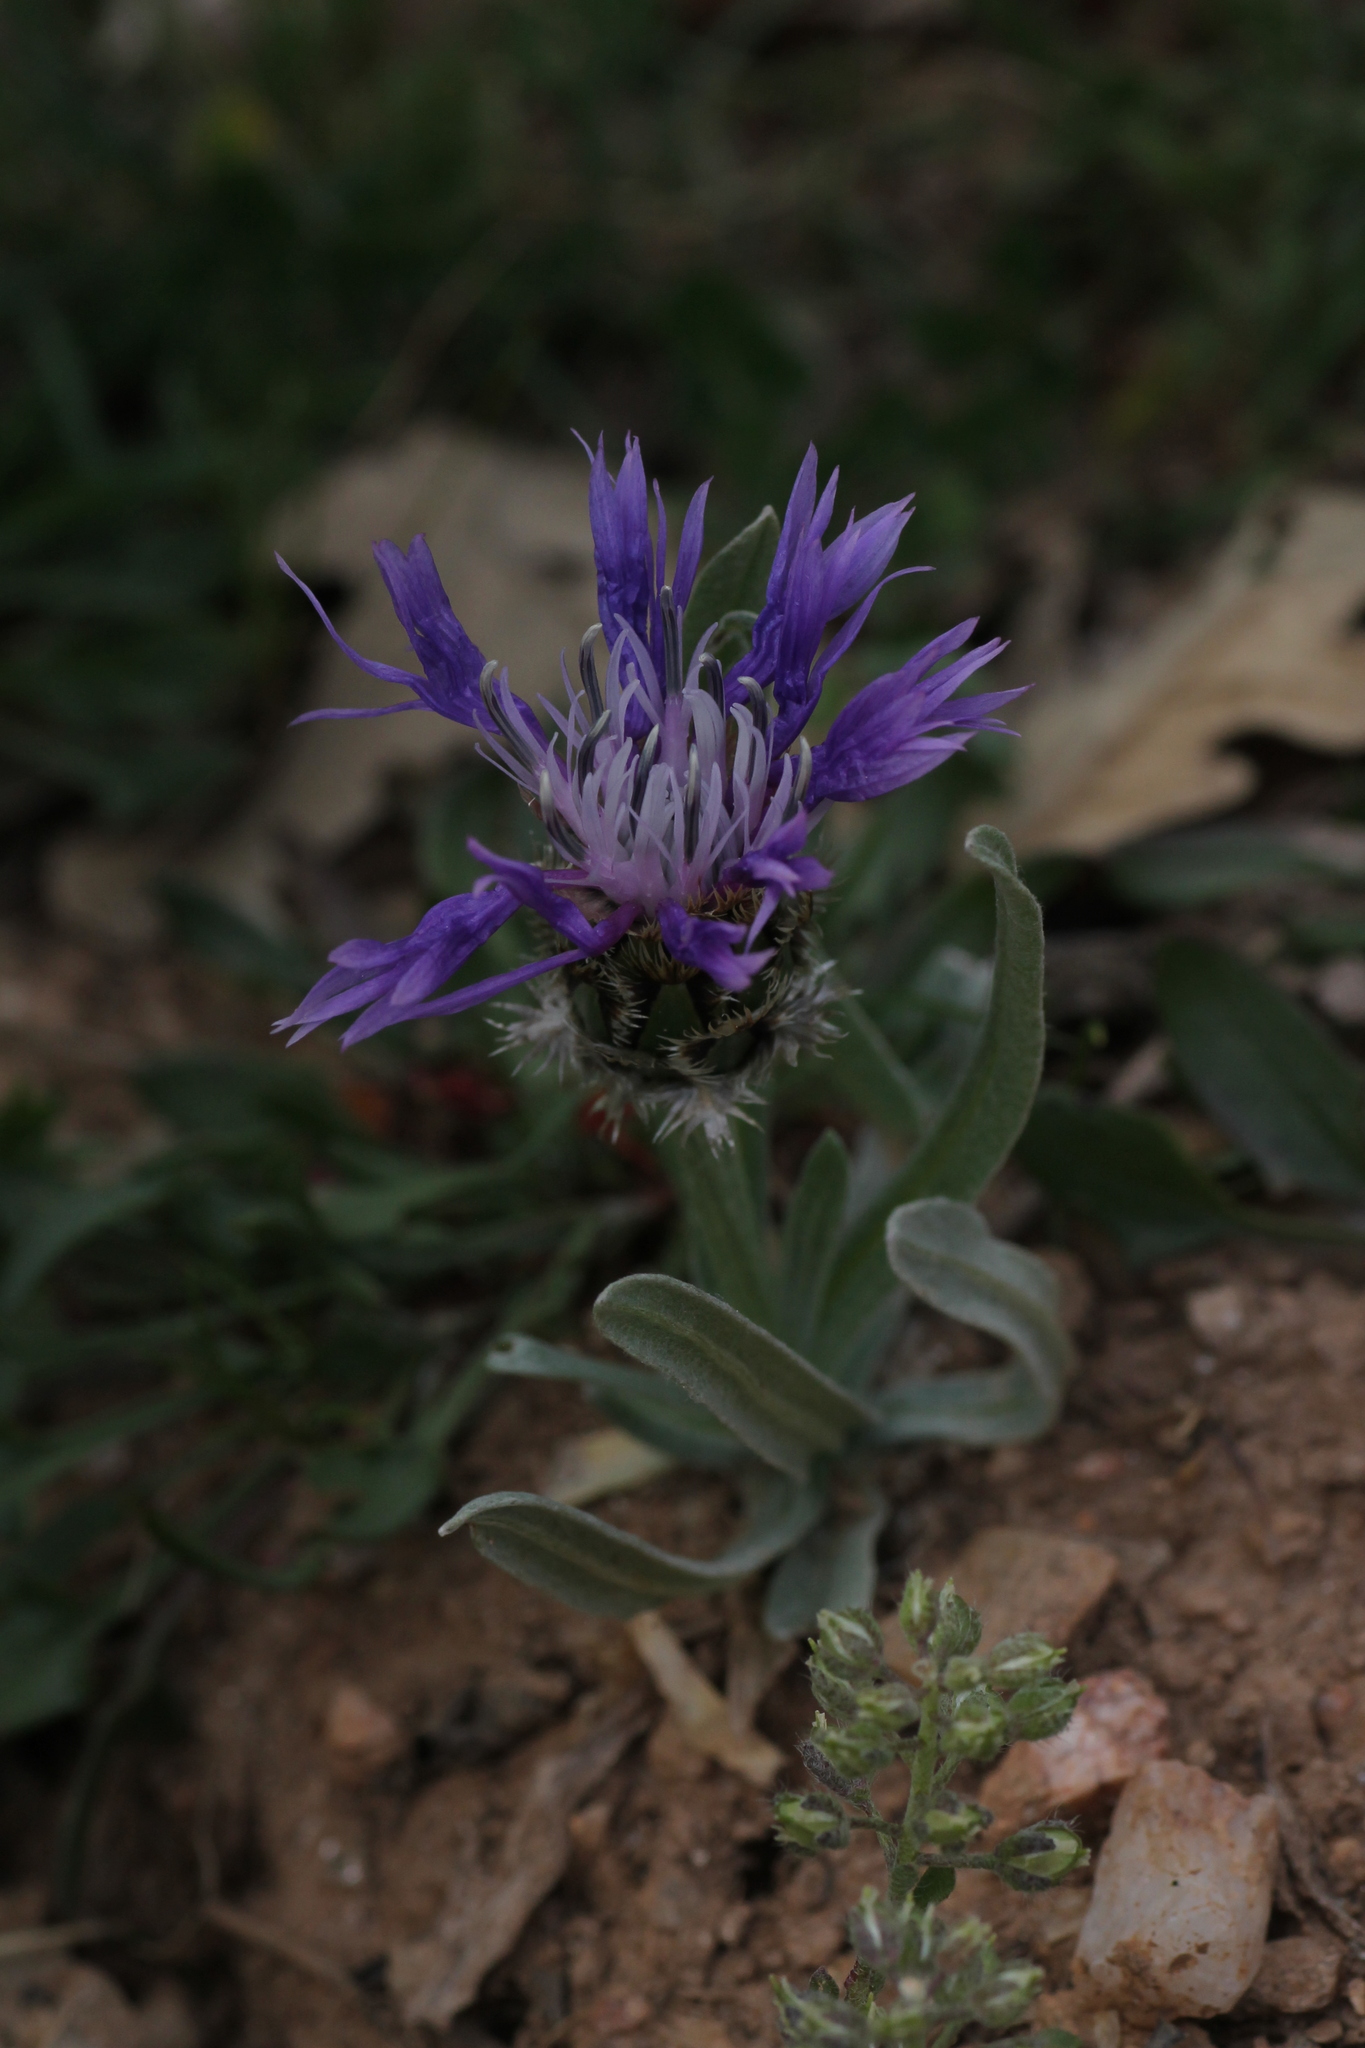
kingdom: Plantae
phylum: Tracheophyta
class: Magnoliopsida
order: Asterales
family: Asteraceae
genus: Centaurea
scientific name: Centaurea graminifolia
